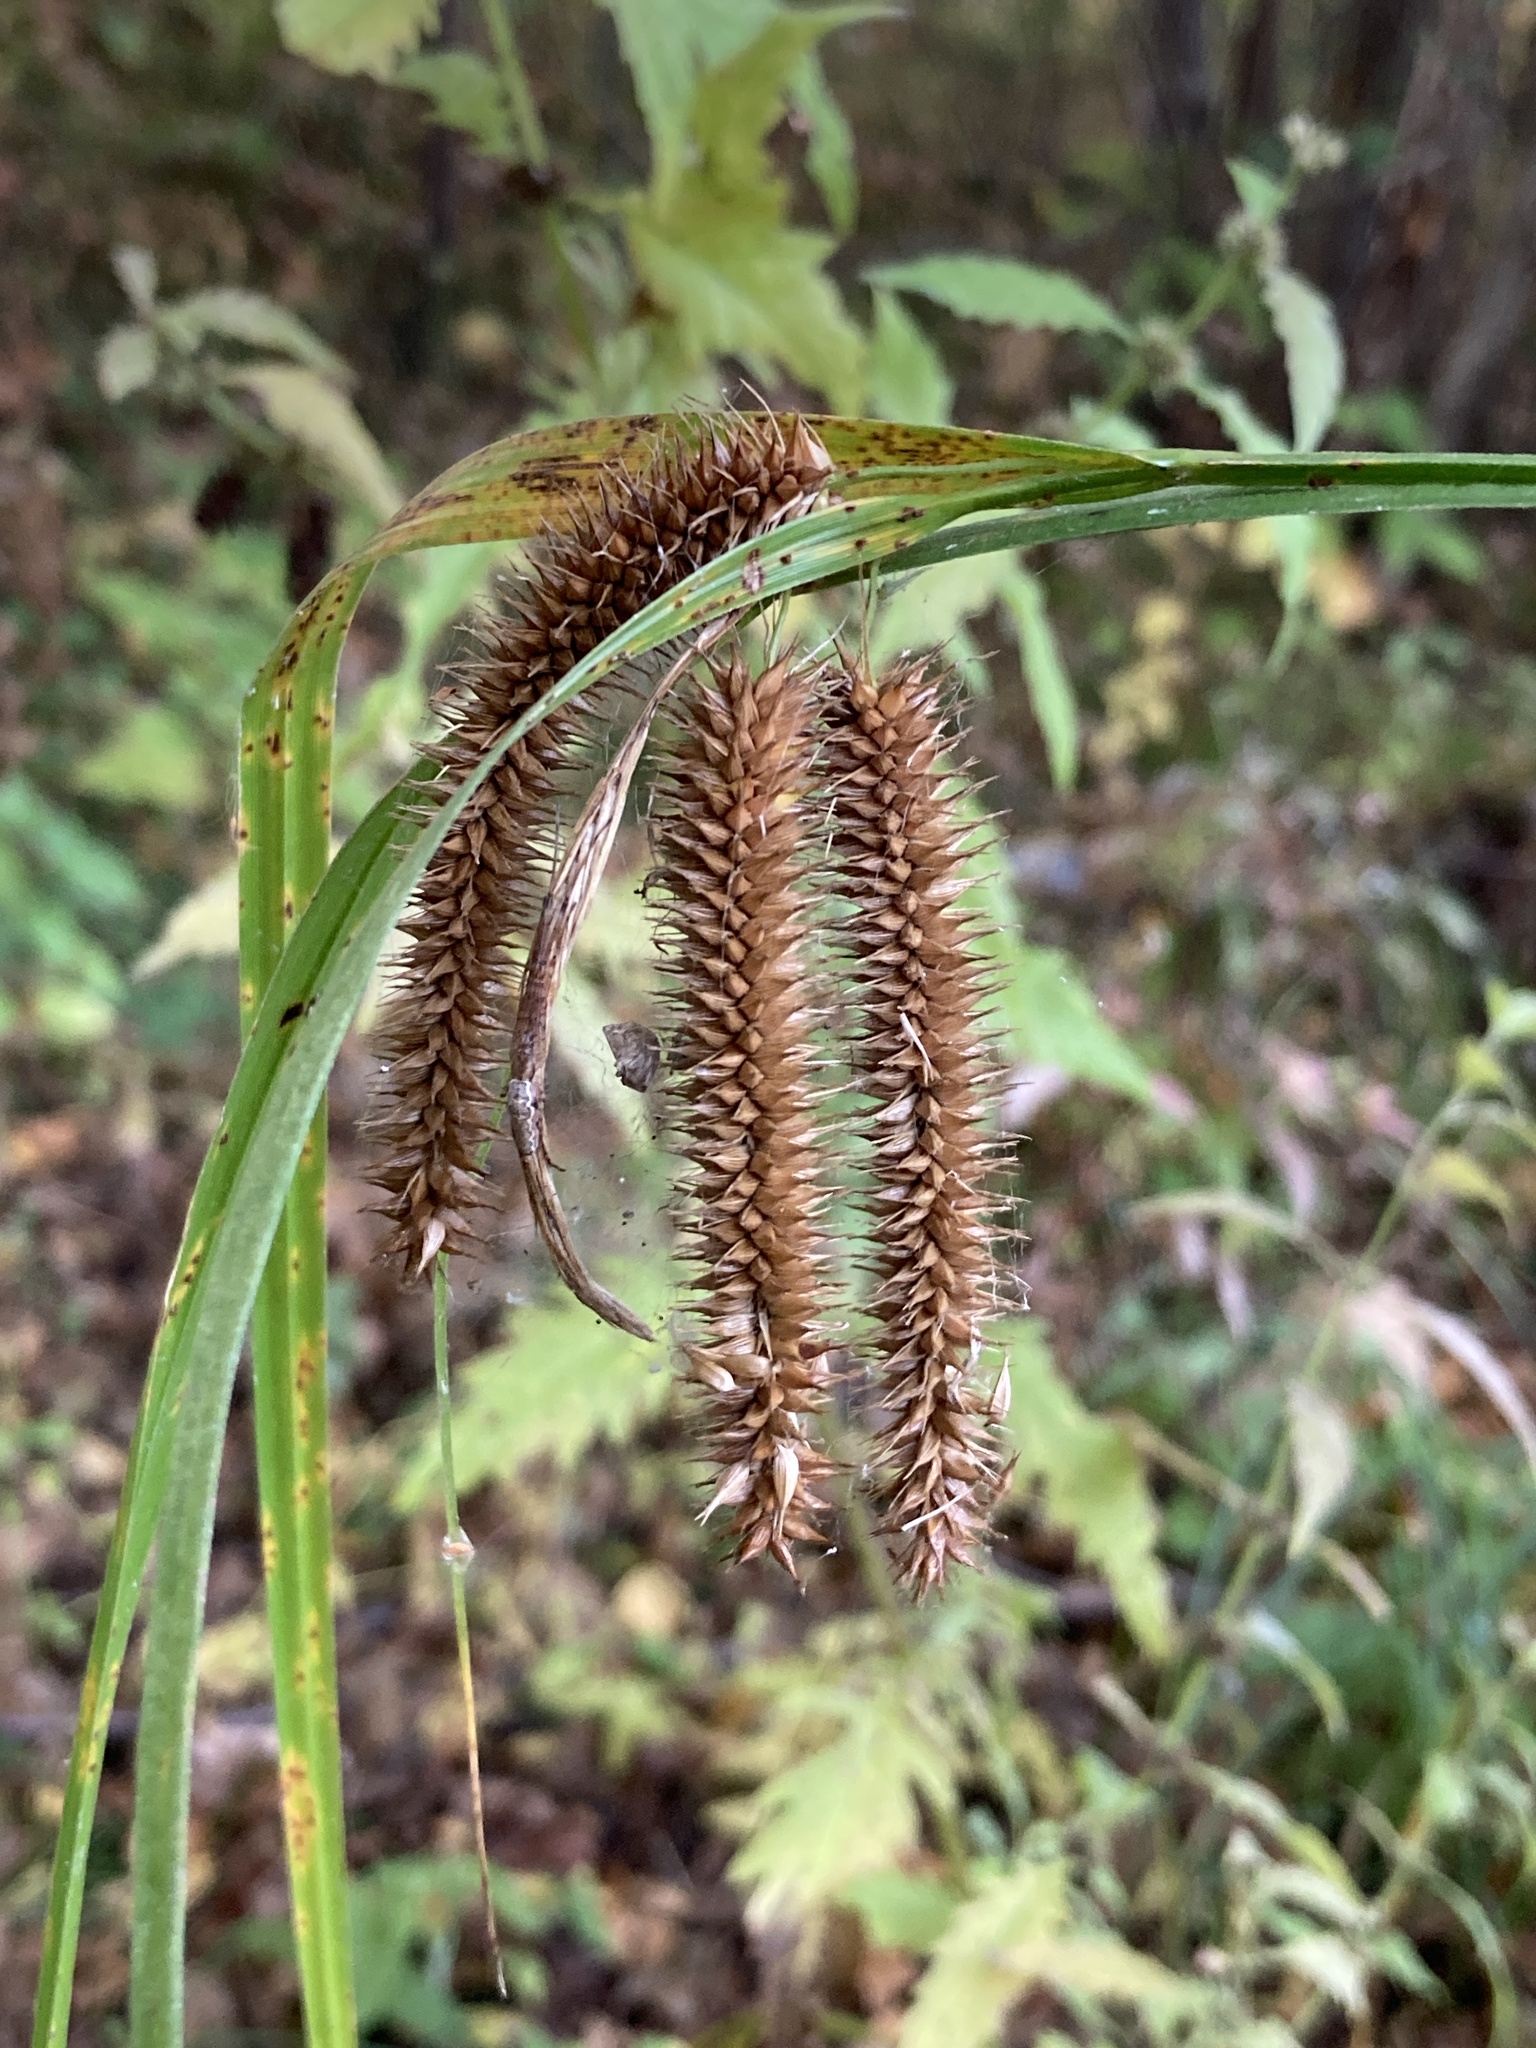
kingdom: Plantae
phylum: Tracheophyta
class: Liliopsida
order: Poales
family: Cyperaceae
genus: Carex
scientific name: Carex pseudocyperus
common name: Cyperus sedge
